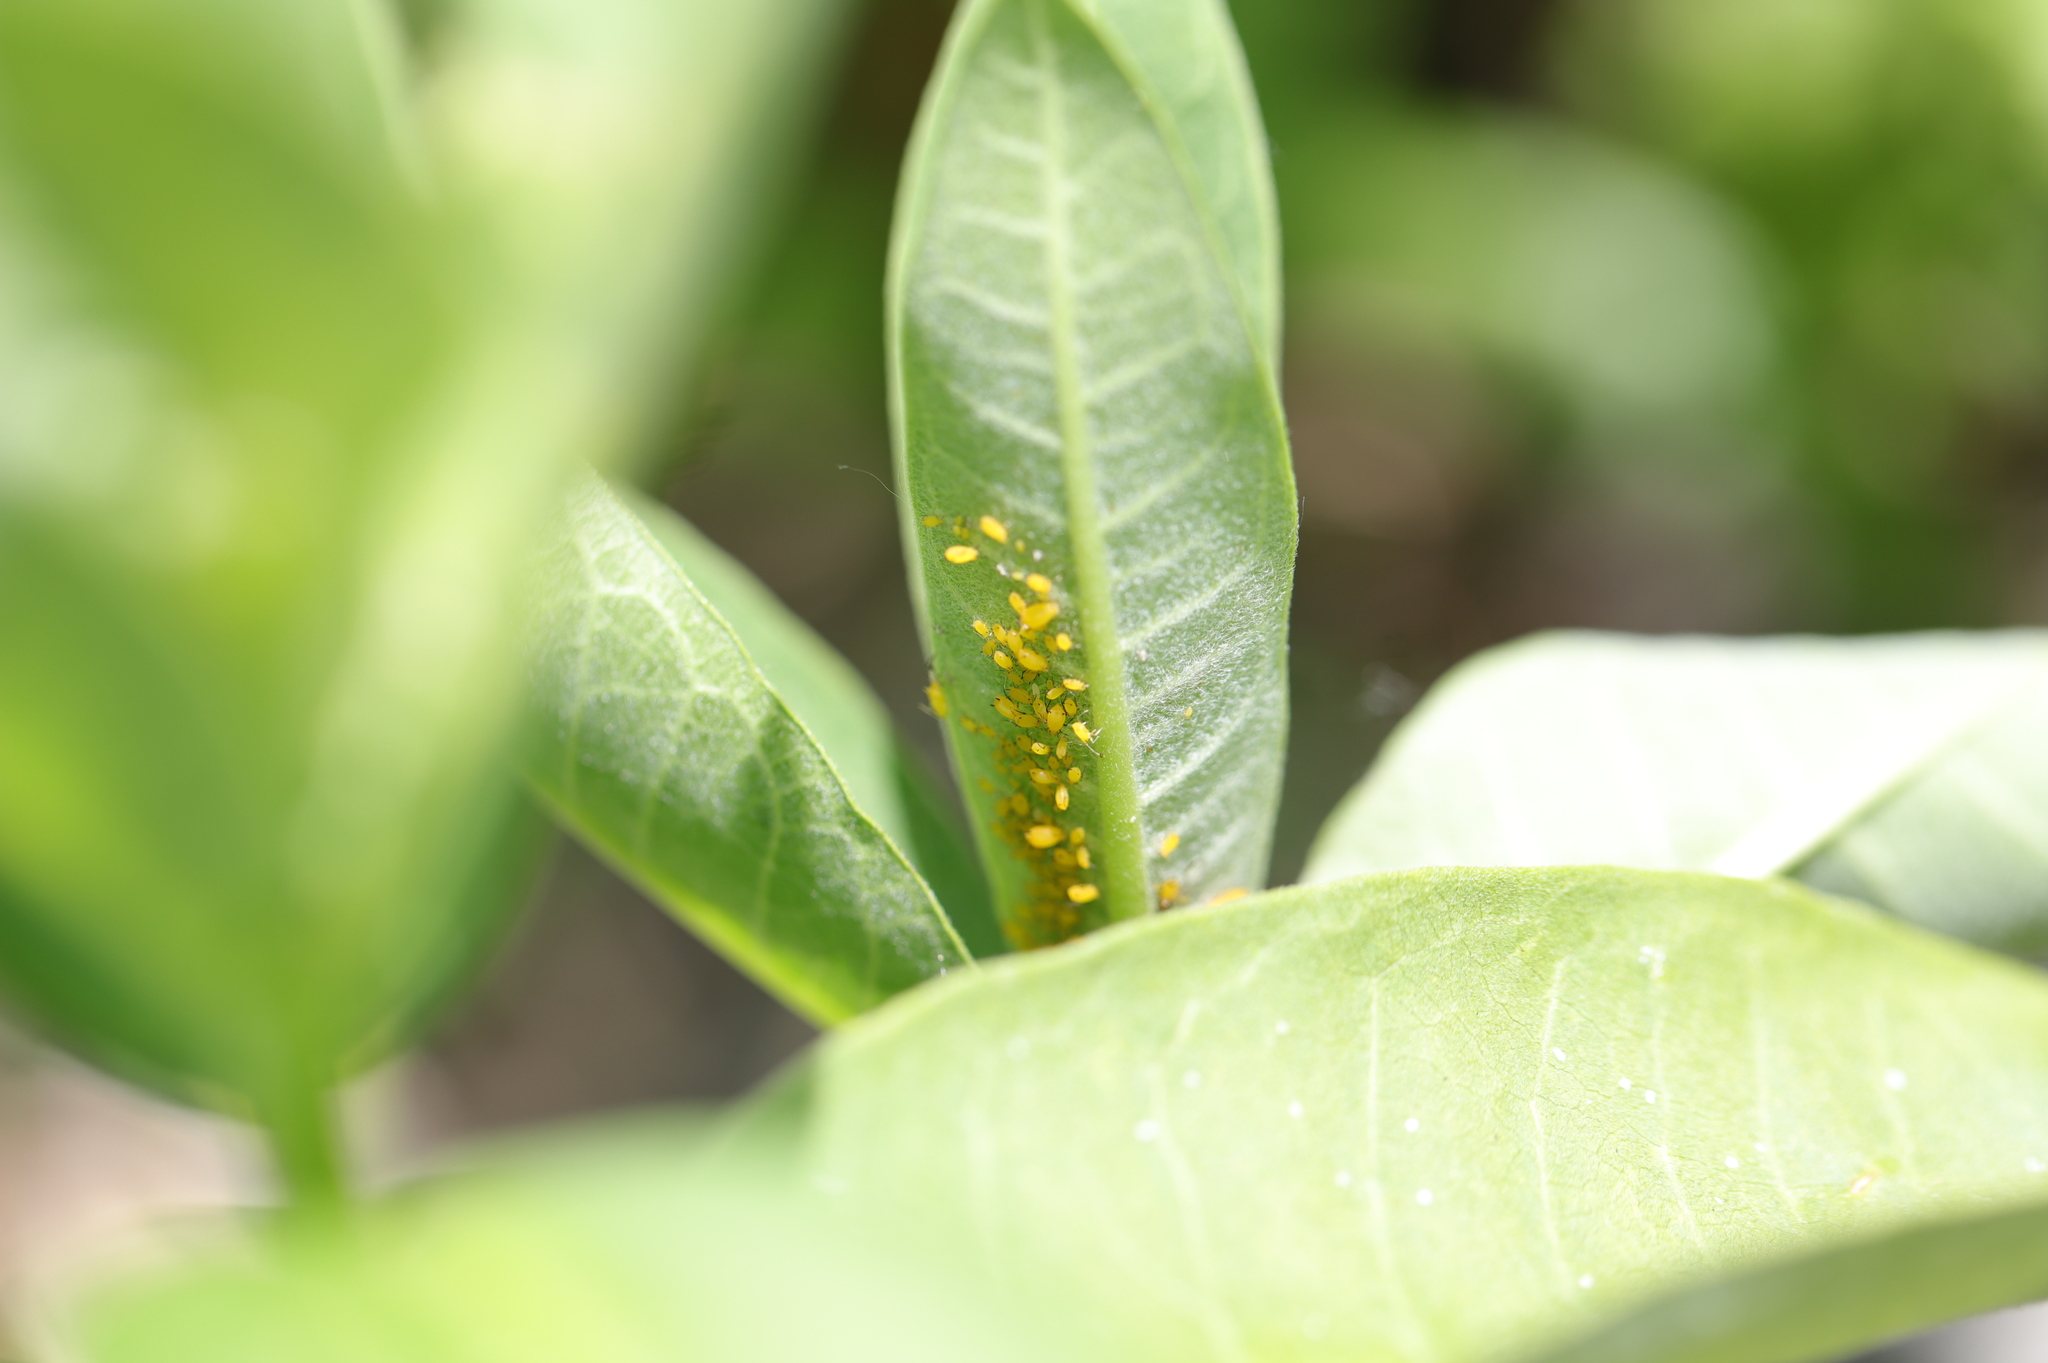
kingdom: Animalia
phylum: Arthropoda
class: Insecta
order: Hemiptera
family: Aphididae
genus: Aphis
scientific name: Aphis nerii
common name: Oleander aphid
